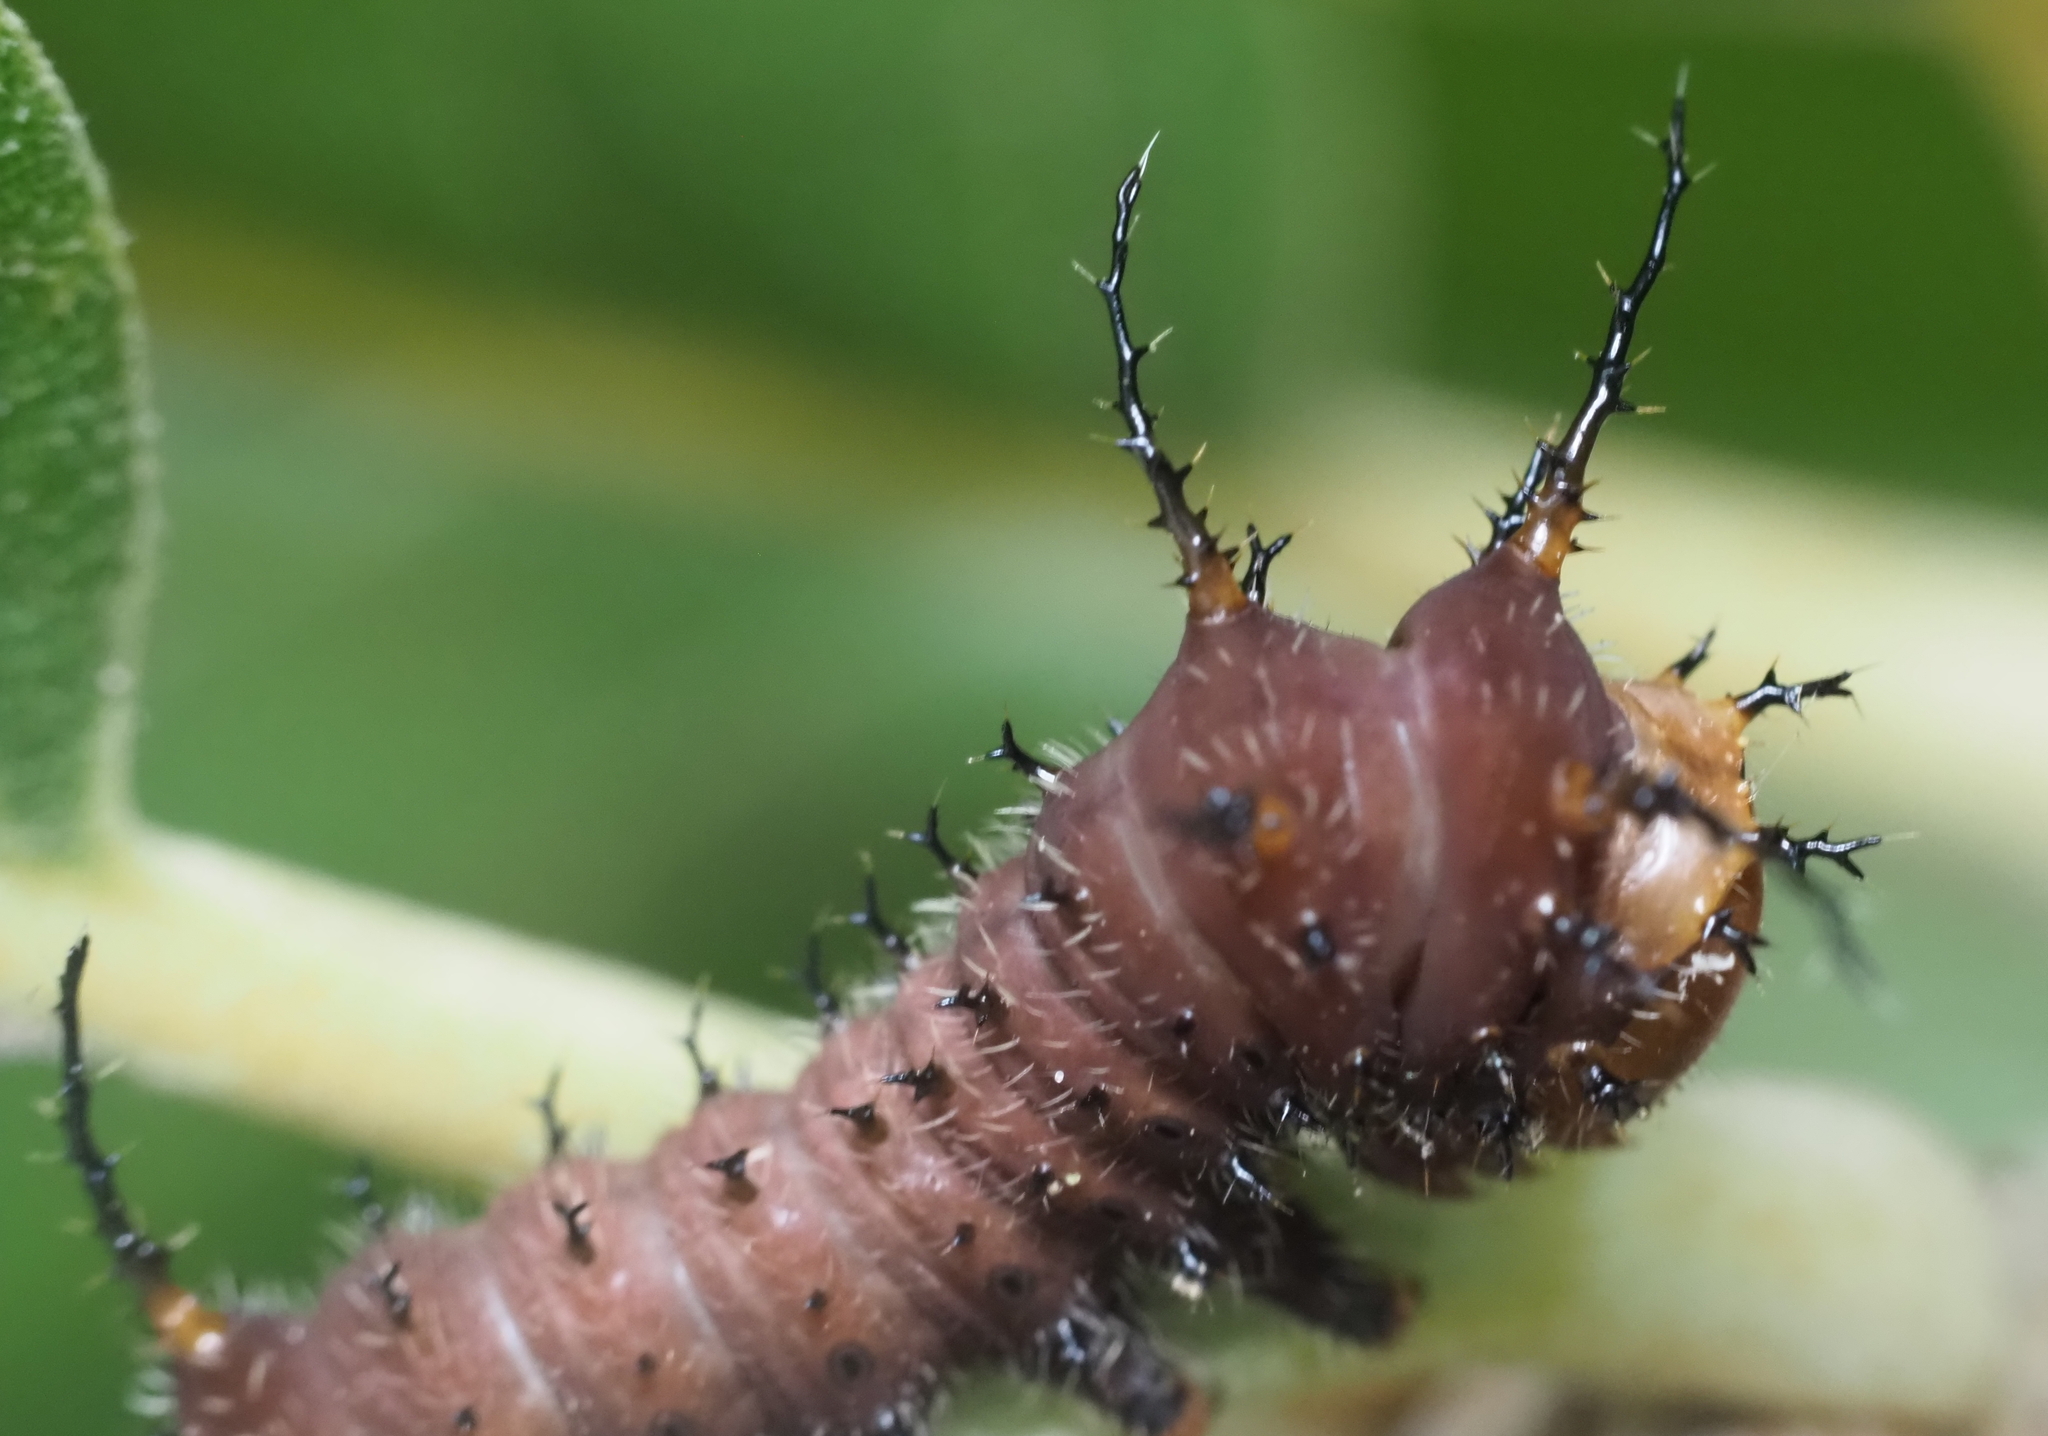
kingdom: Animalia
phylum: Arthropoda
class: Insecta
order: Lepidoptera
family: Saturniidae
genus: Eacles
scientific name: Eacles imperialis
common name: Imperial moth
